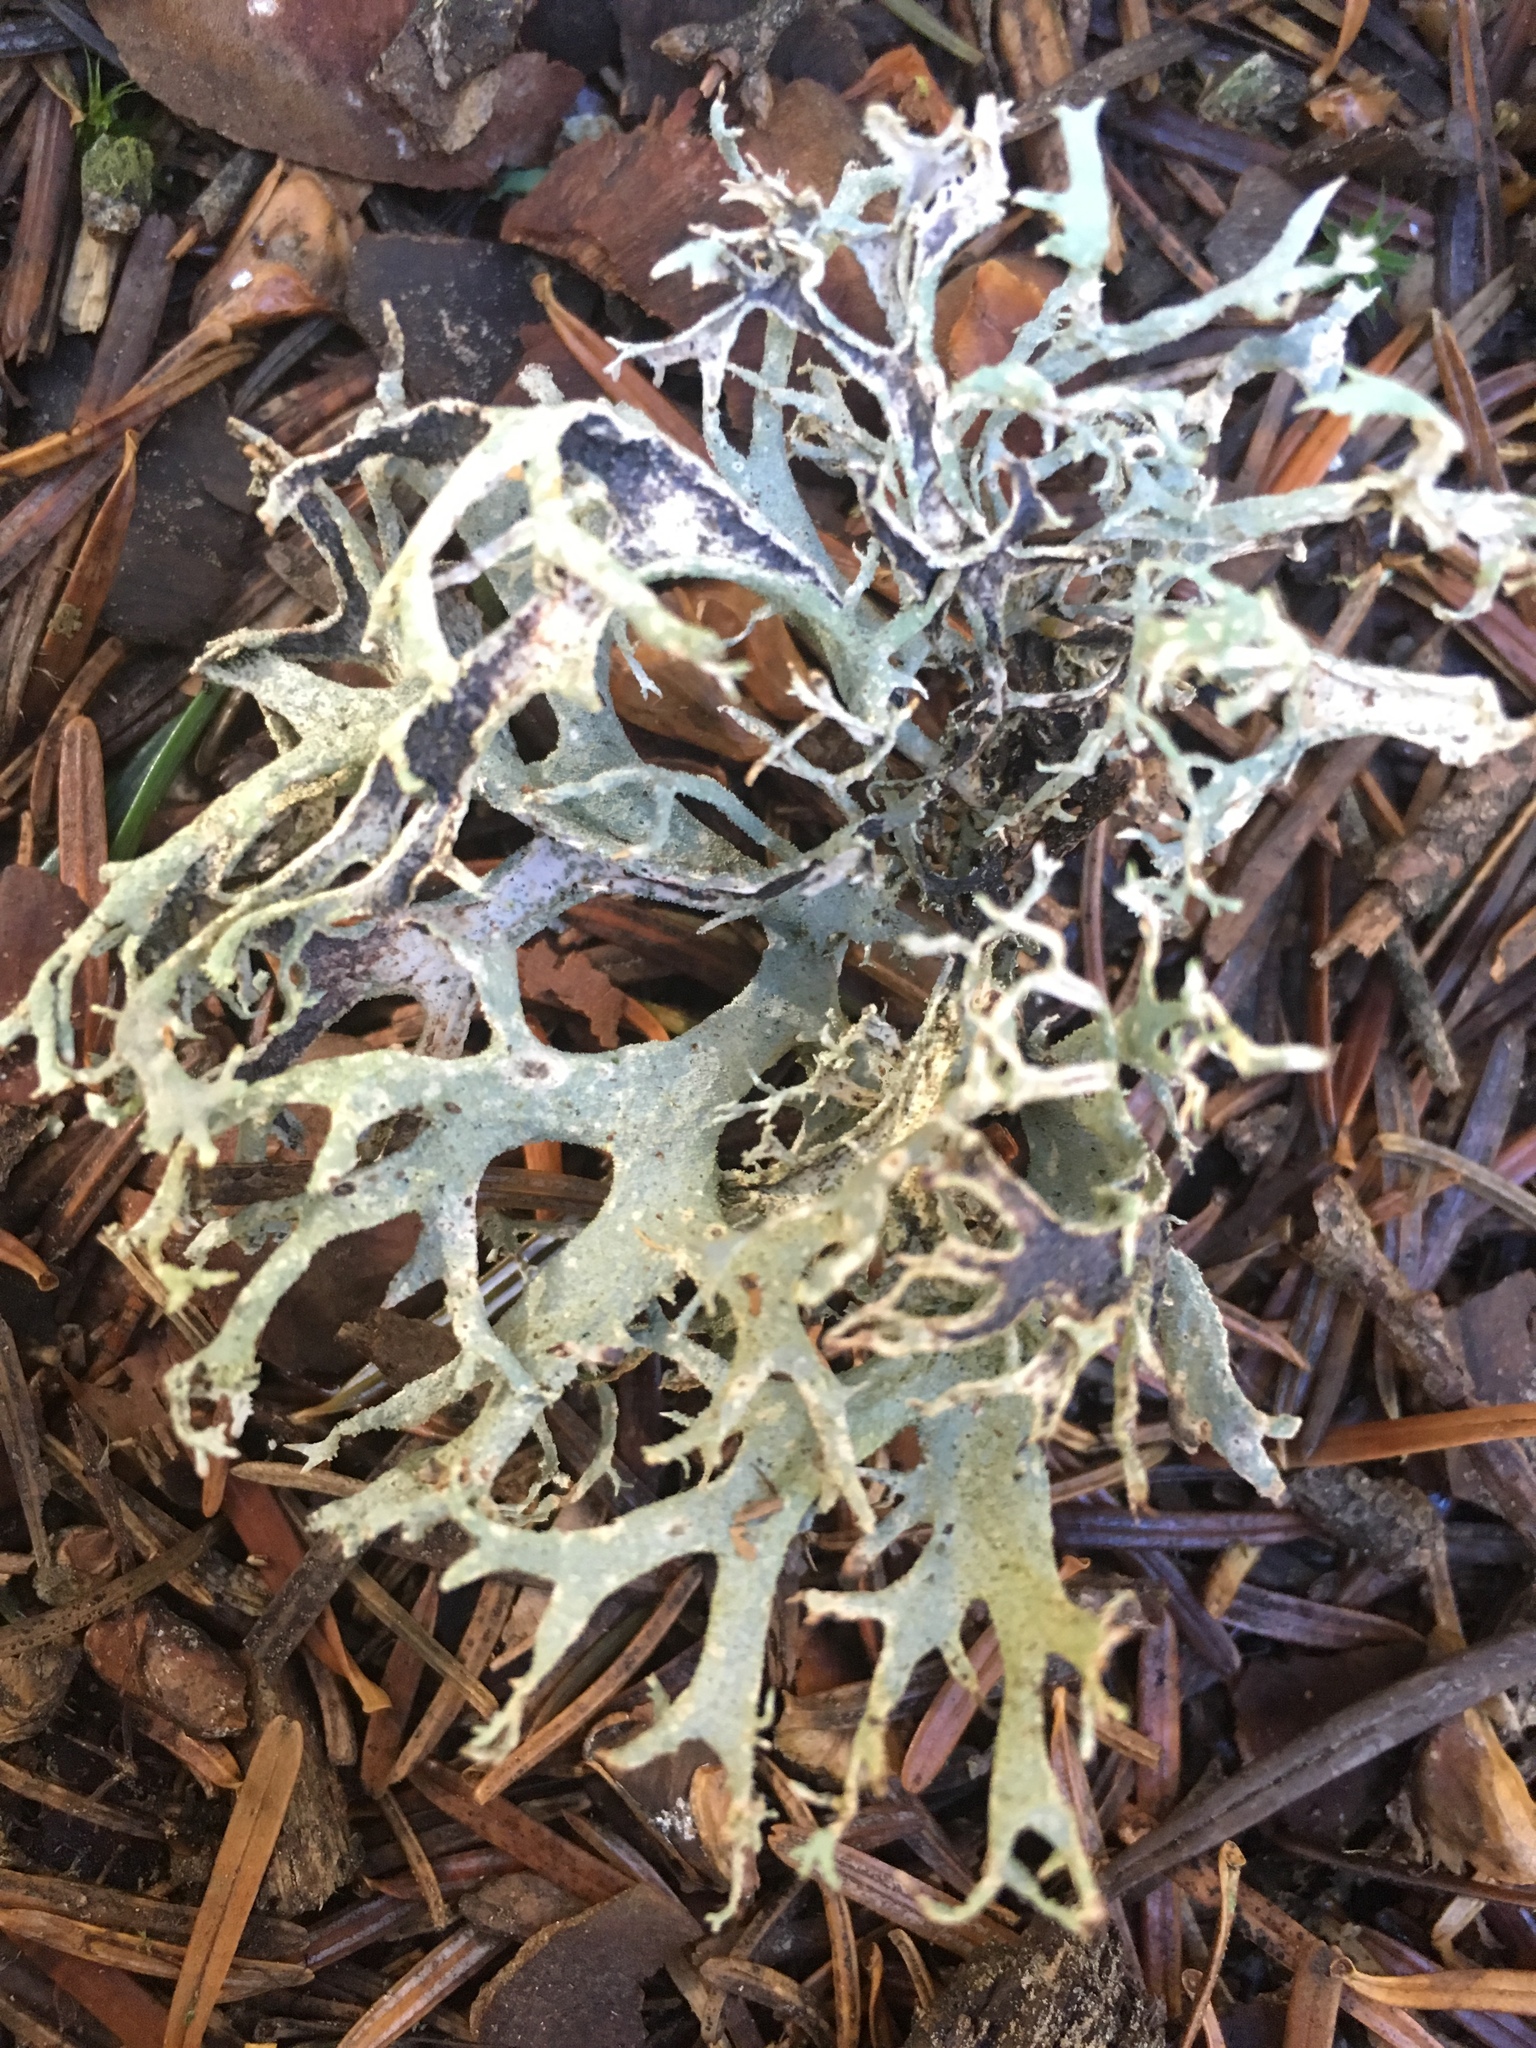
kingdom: Fungi
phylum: Ascomycota
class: Lecanoromycetes
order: Lecanorales
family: Parmeliaceae
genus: Pseudevernia
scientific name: Pseudevernia furfuracea
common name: Tree moss
